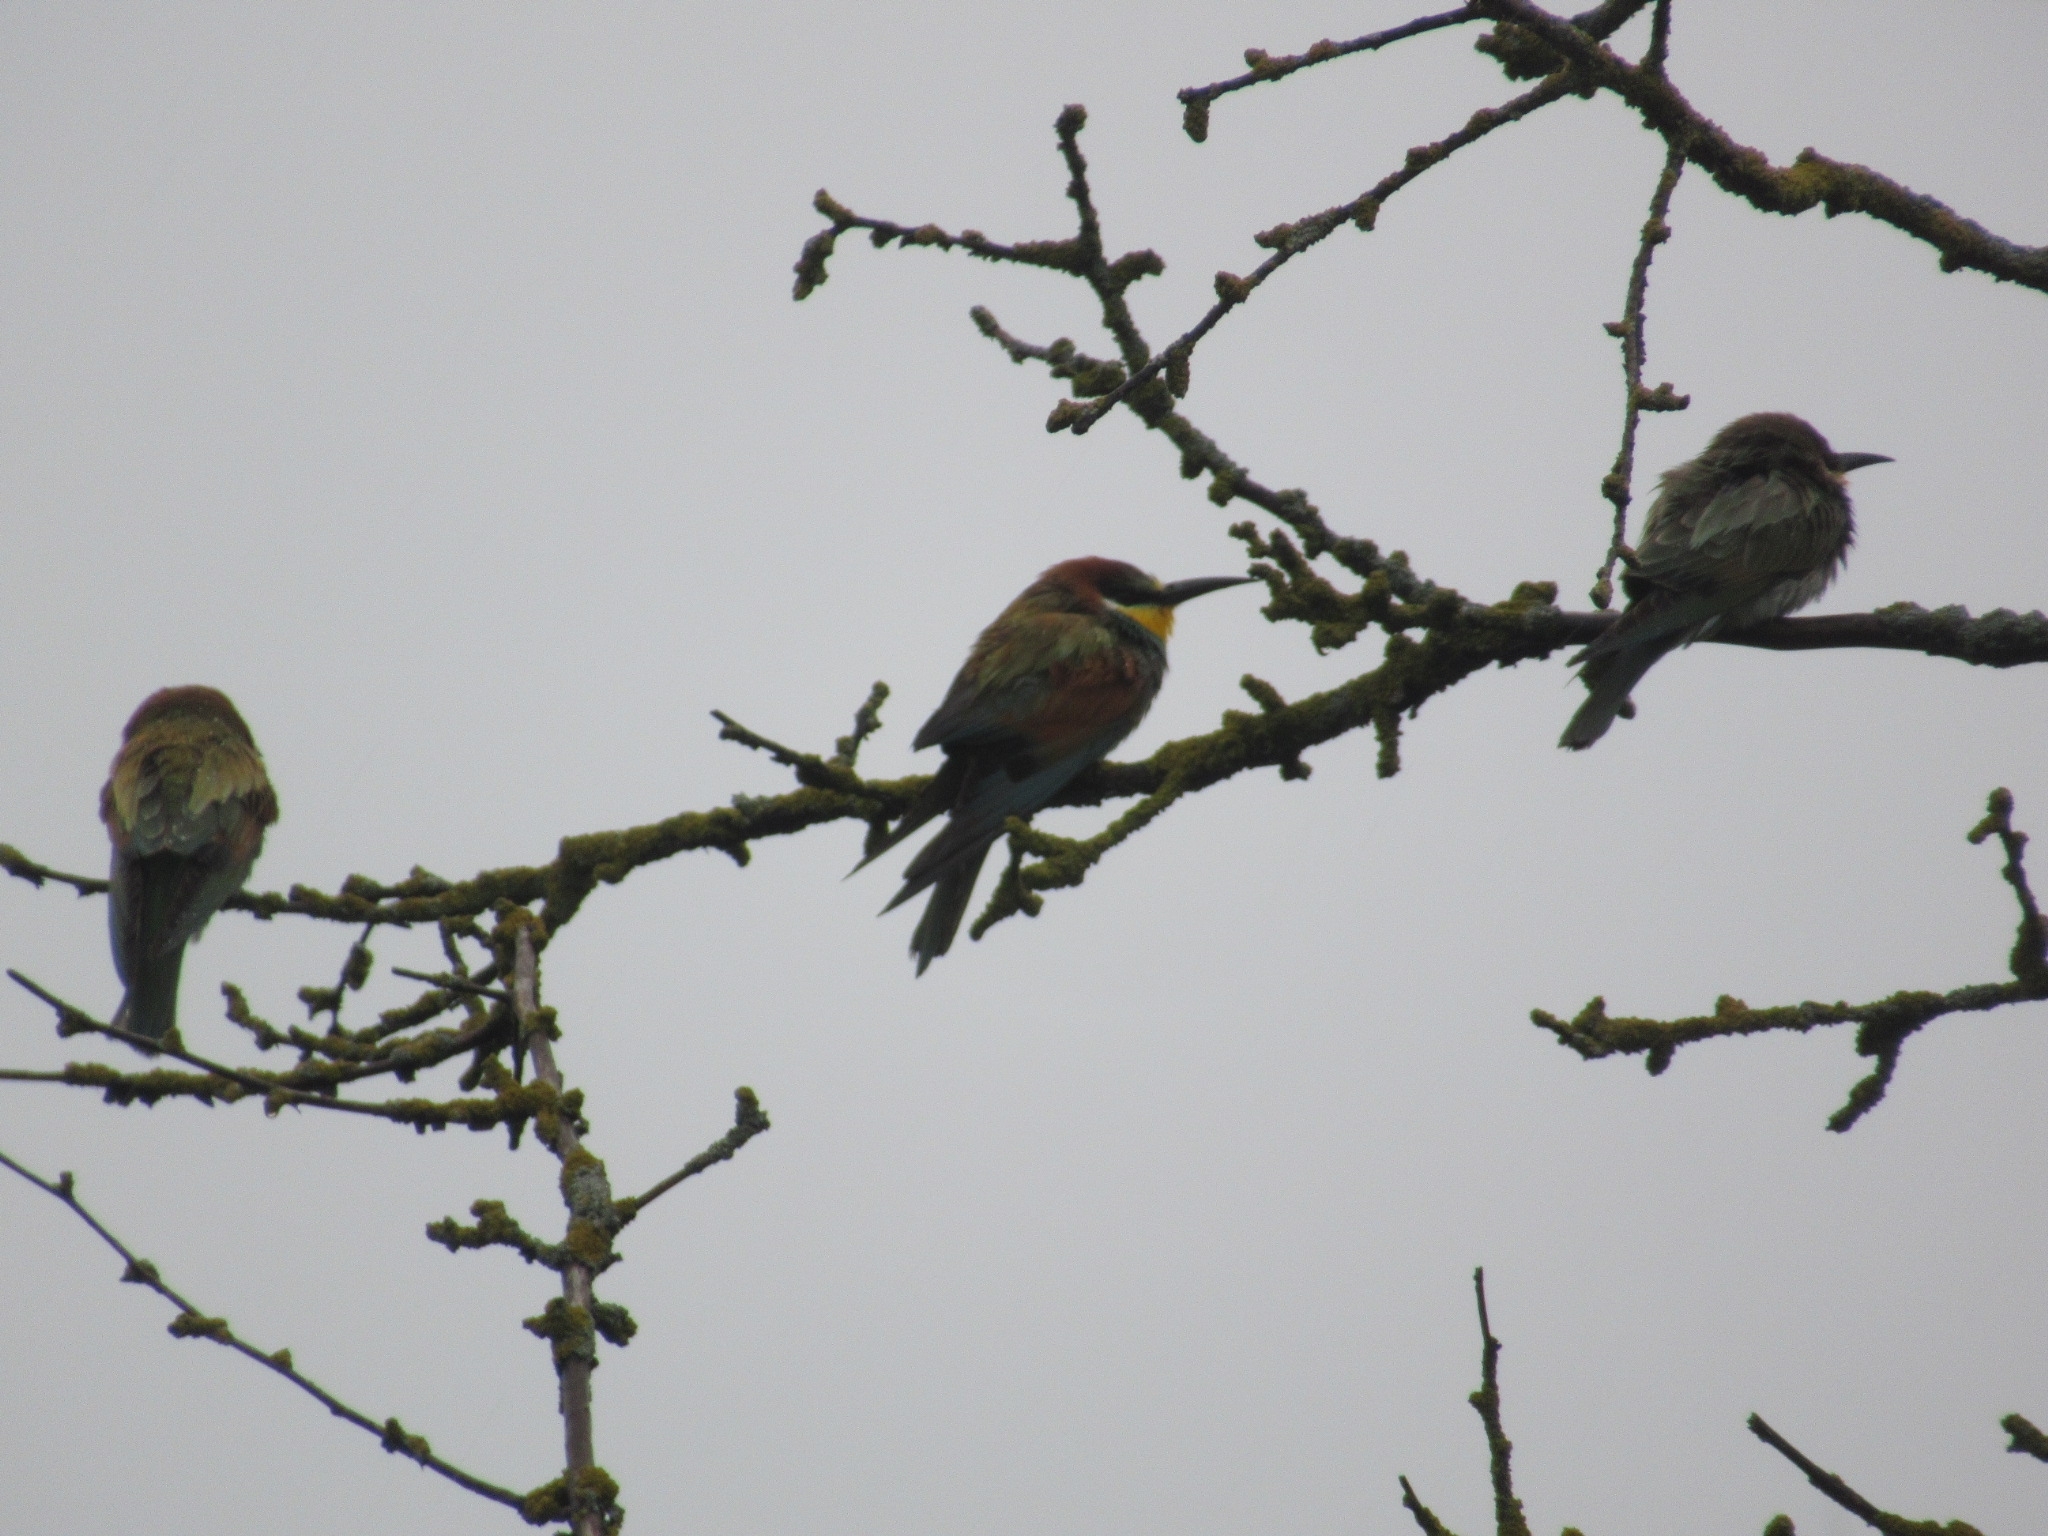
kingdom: Animalia
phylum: Chordata
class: Aves
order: Coraciiformes
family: Meropidae
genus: Merops
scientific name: Merops apiaster
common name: European bee-eater
